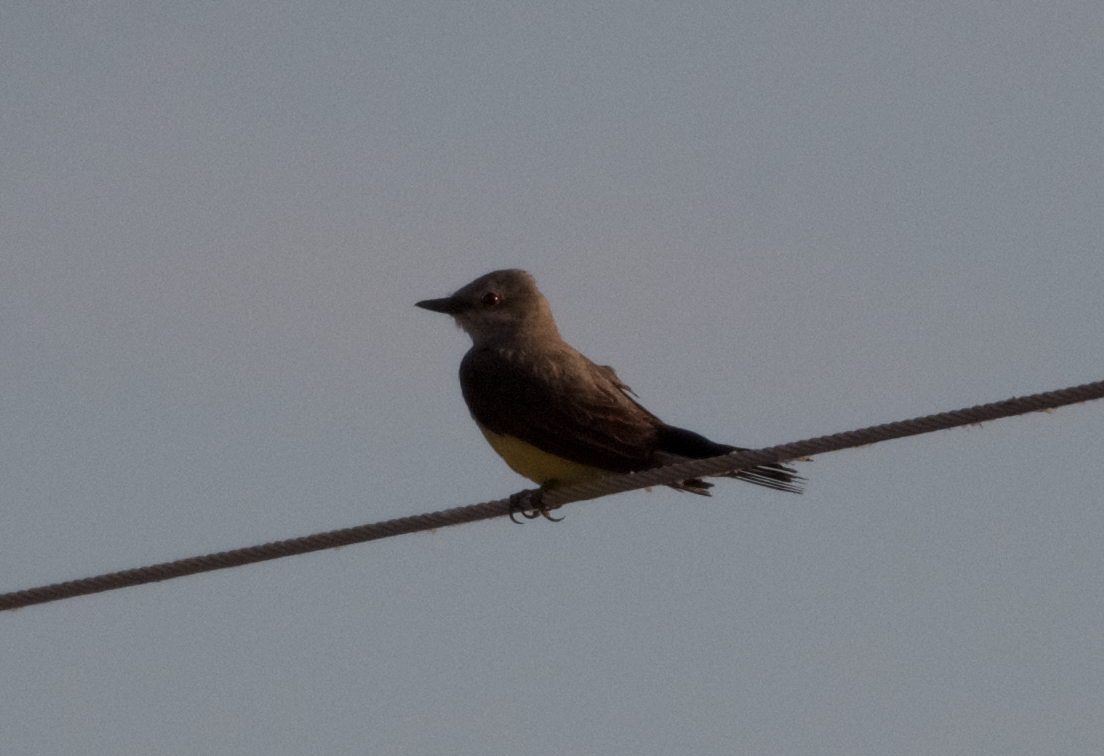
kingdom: Animalia
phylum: Chordata
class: Aves
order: Passeriformes
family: Tyrannidae
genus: Tyrannus
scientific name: Tyrannus verticalis
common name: Western kingbird
